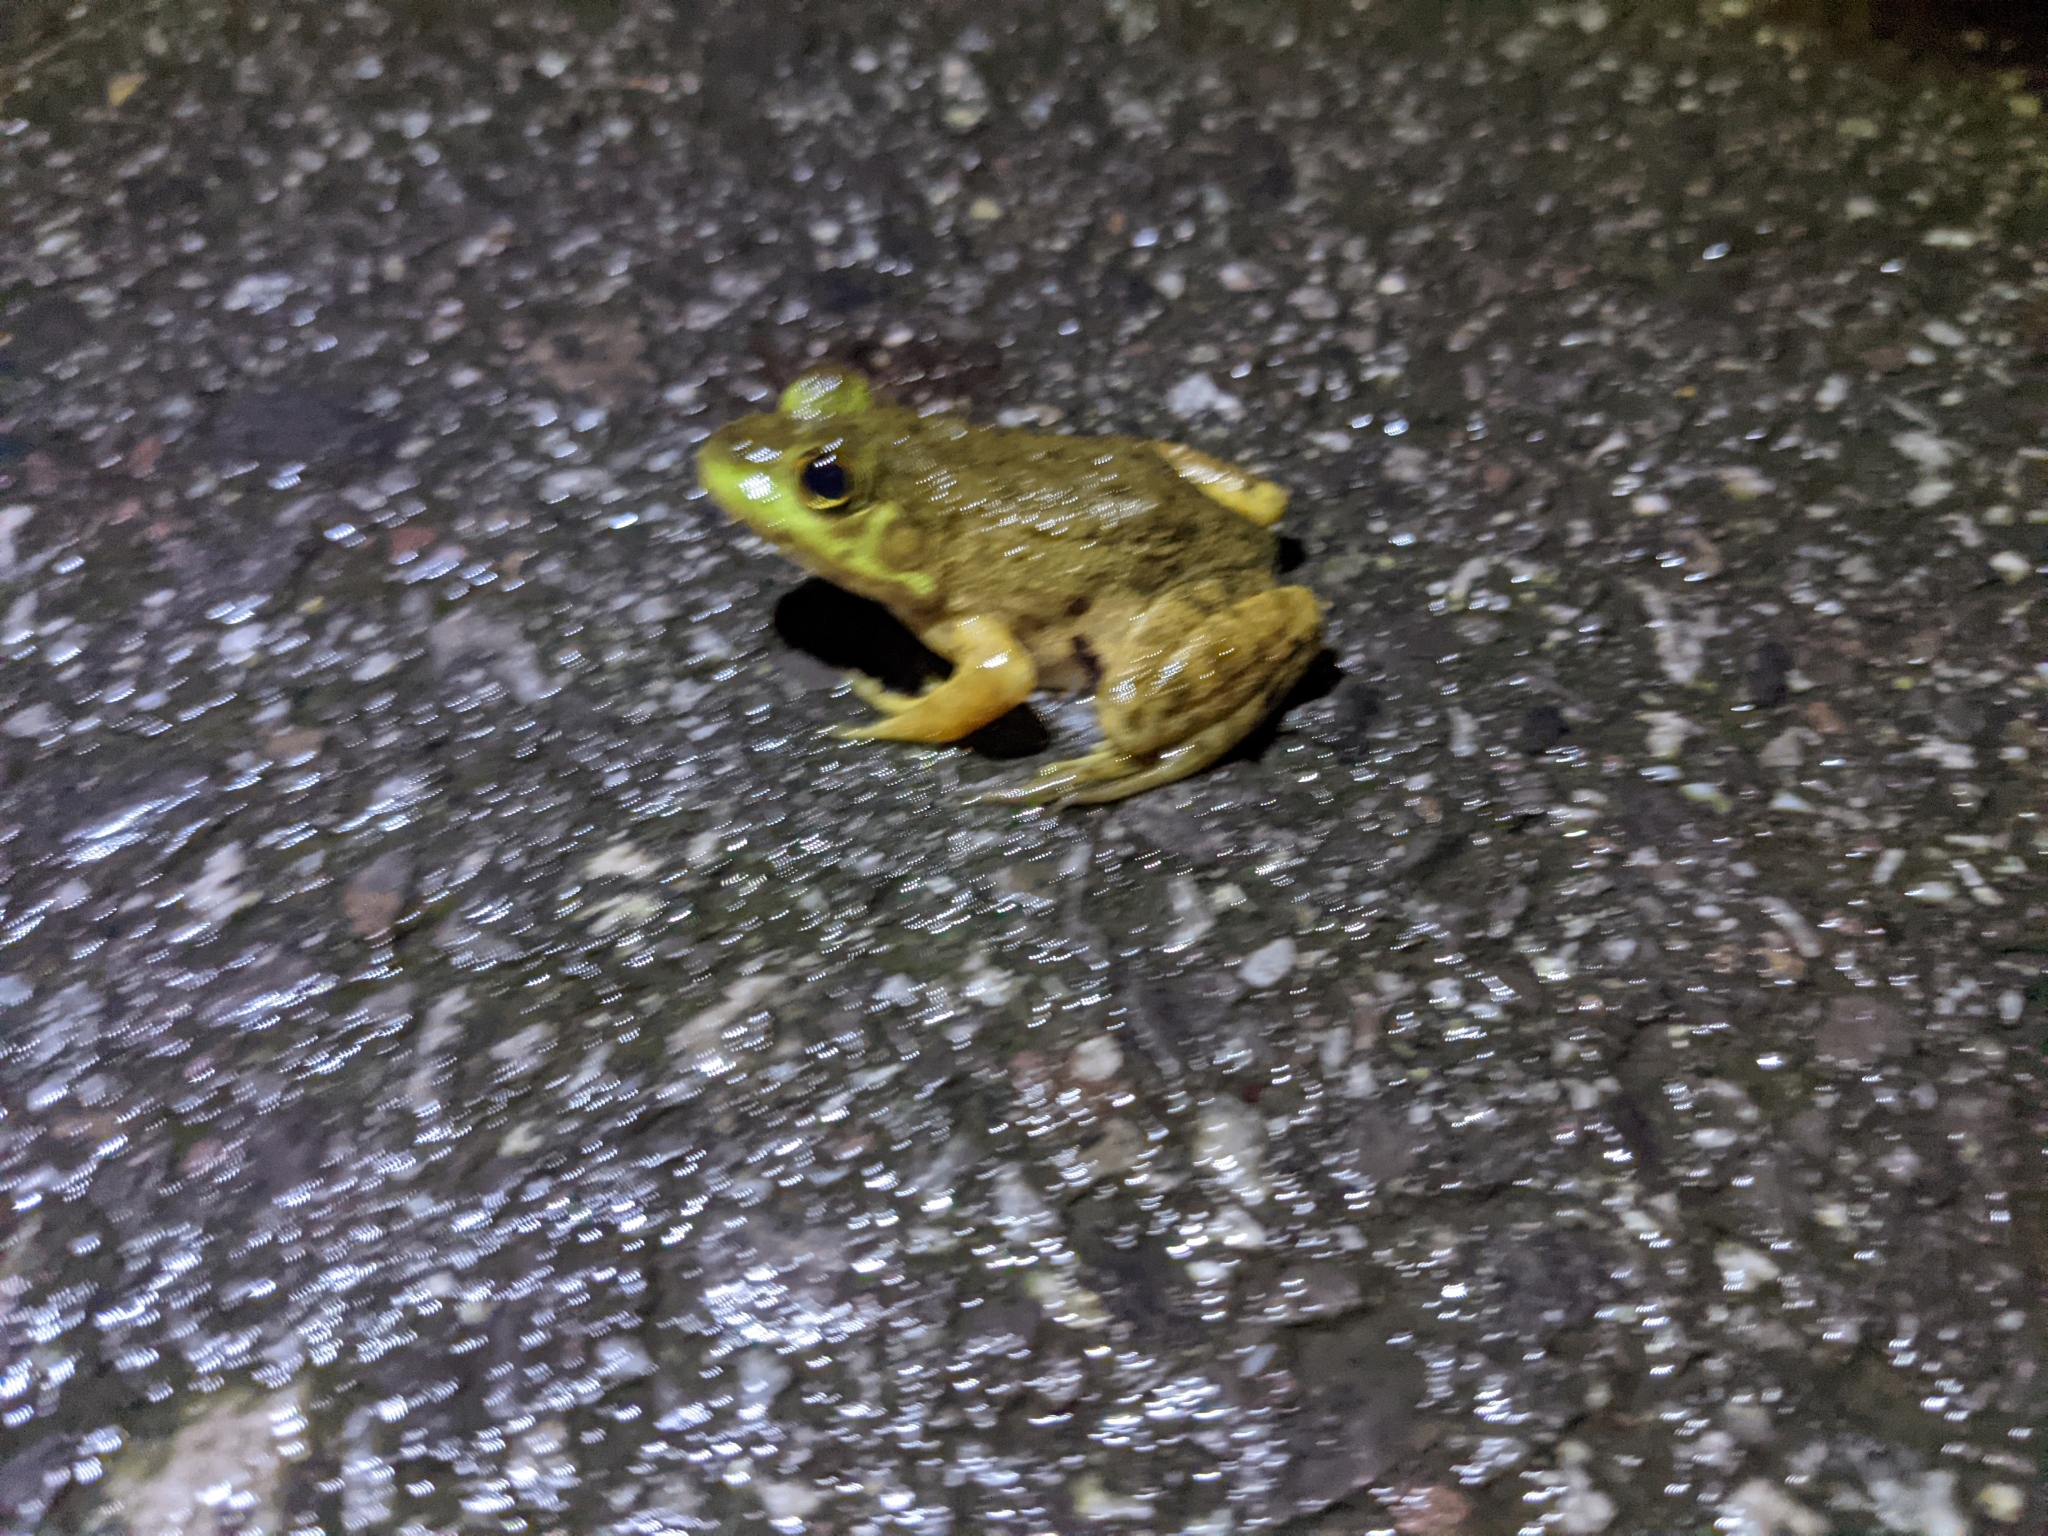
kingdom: Animalia
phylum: Chordata
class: Amphibia
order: Anura
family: Ranidae
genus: Lithobates
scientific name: Lithobates catesbeianus
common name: American bullfrog
